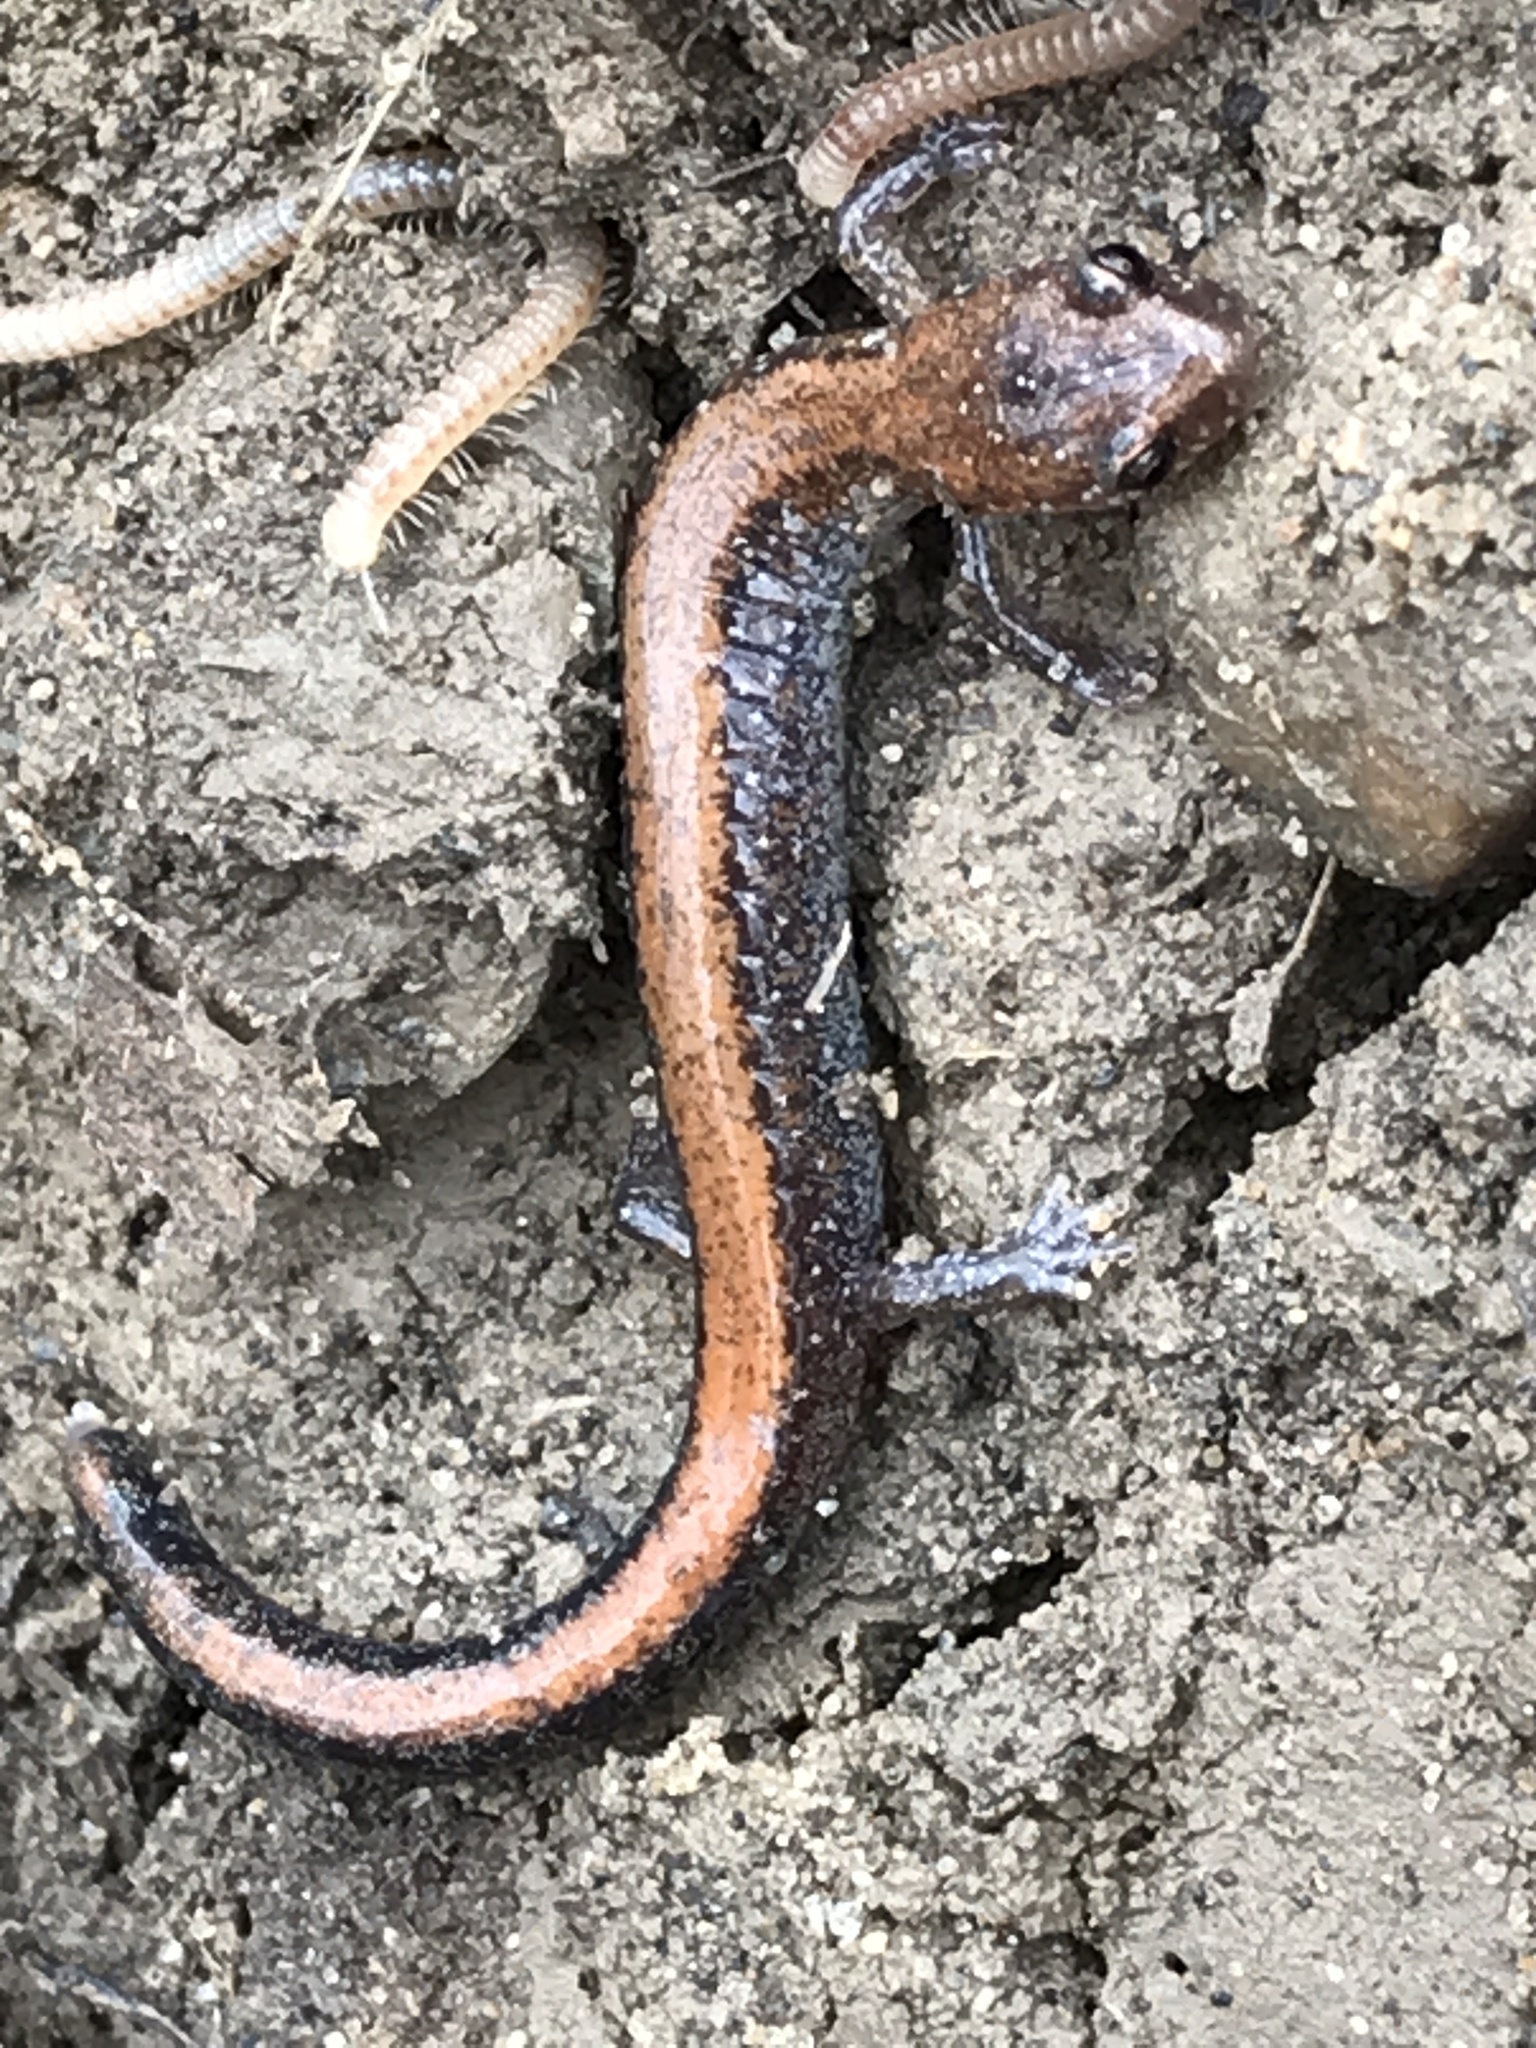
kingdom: Animalia
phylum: Chordata
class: Amphibia
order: Caudata
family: Plethodontidae
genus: Plethodon
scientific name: Plethodon cinereus
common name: Redback salamander
